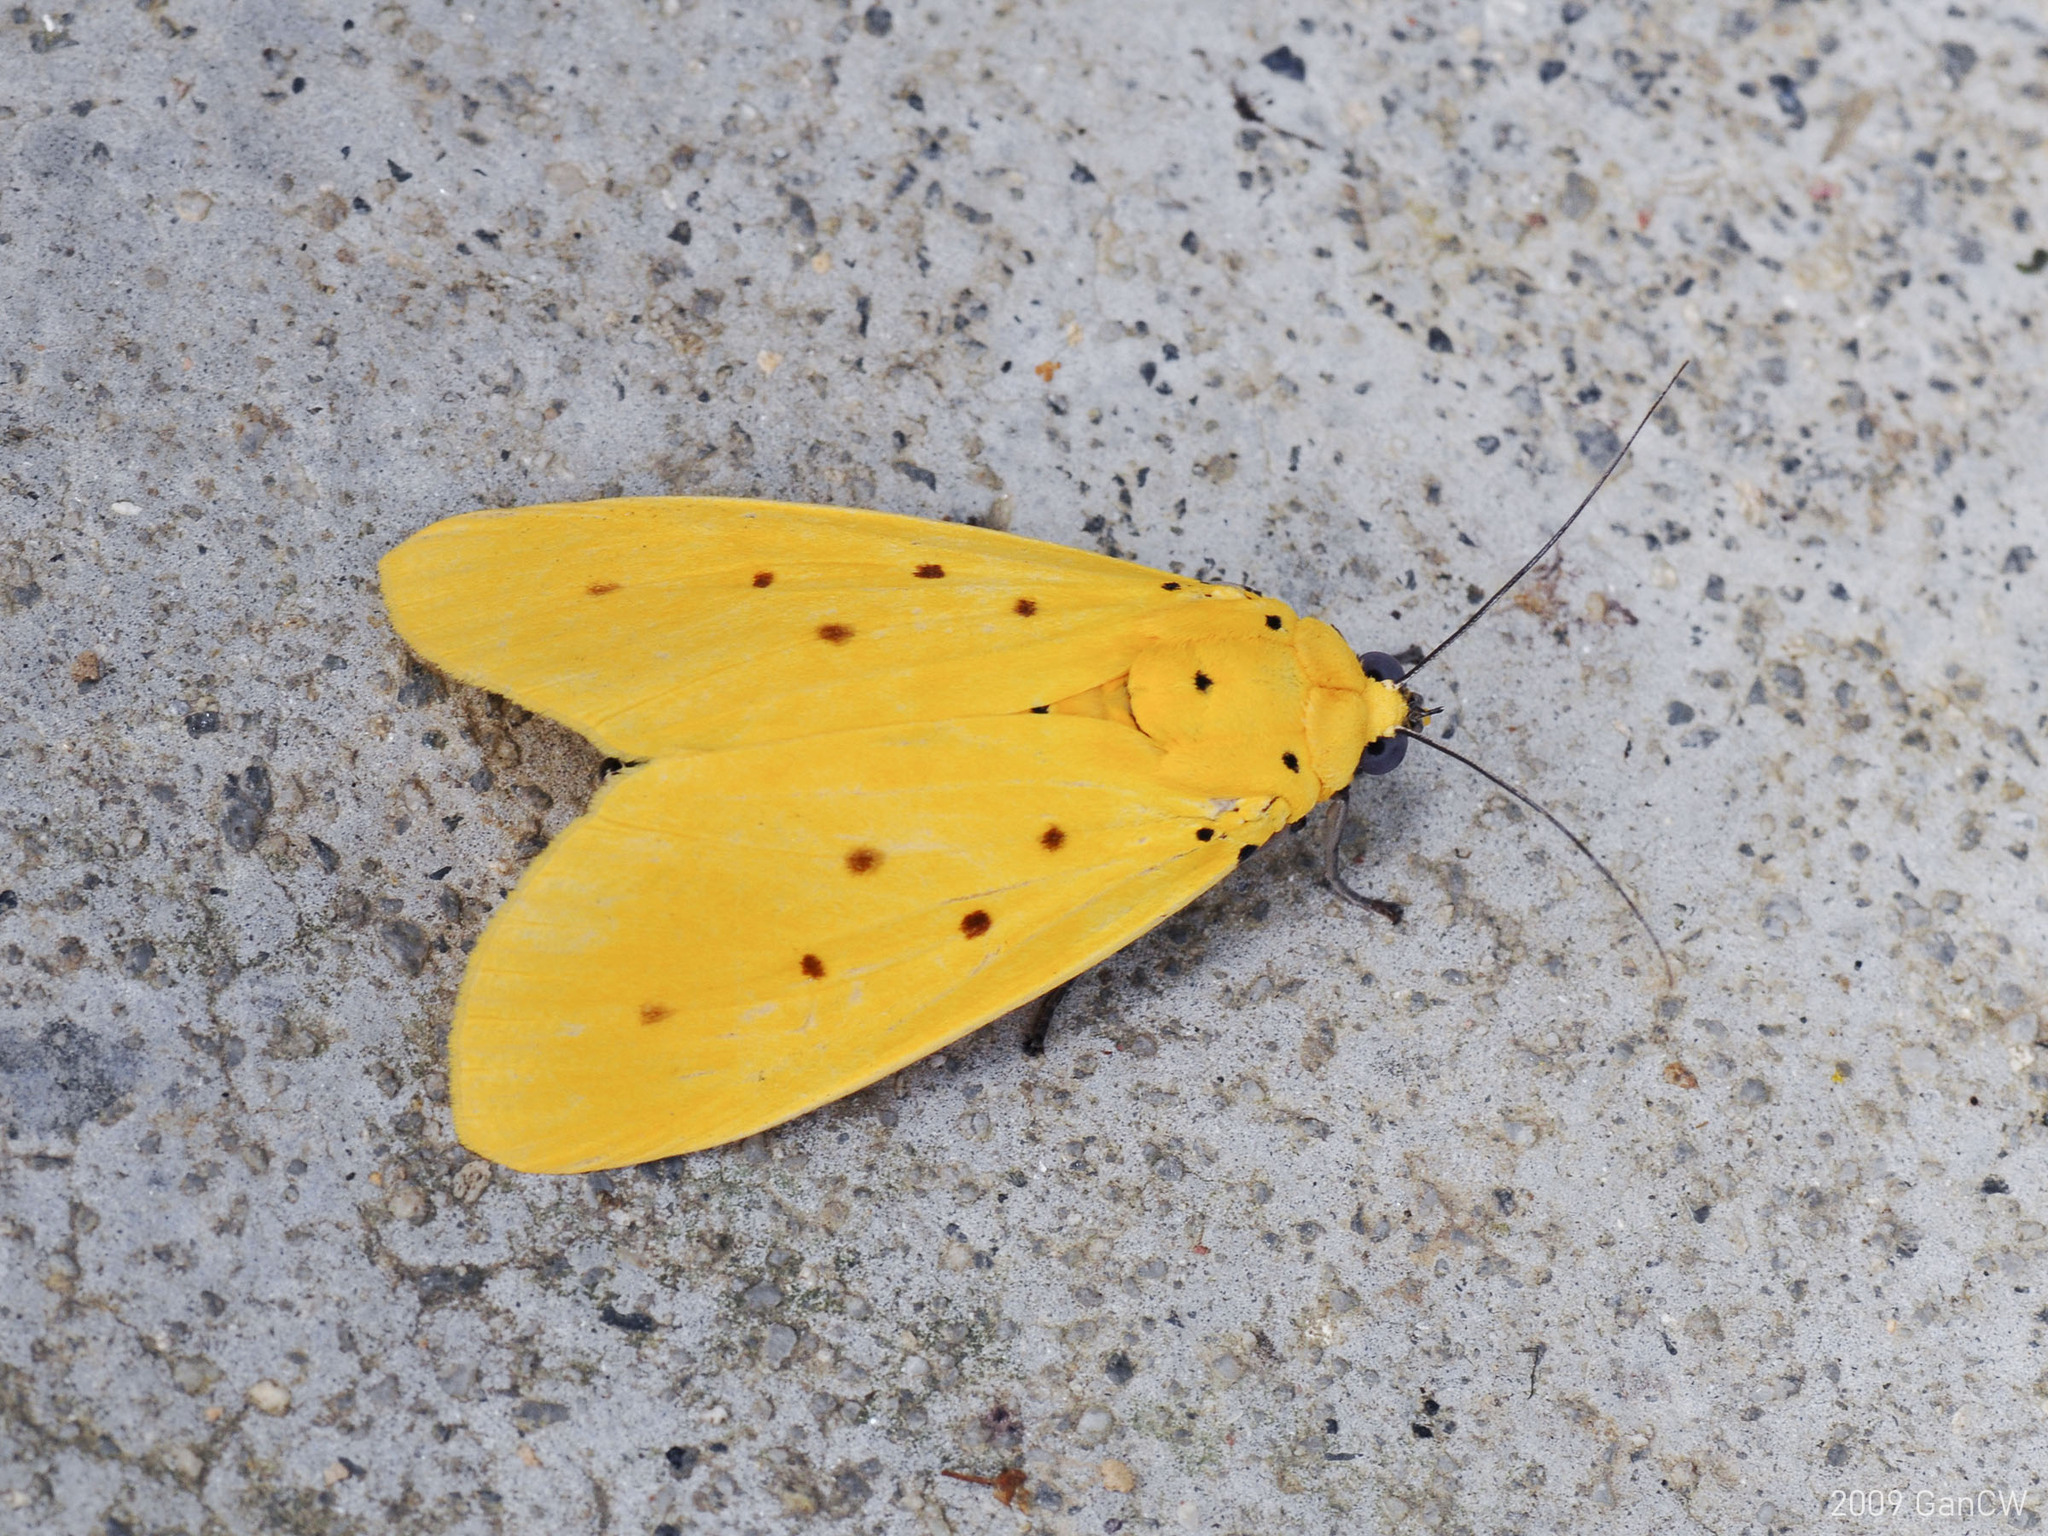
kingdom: Animalia
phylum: Arthropoda
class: Insecta
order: Lepidoptera
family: Noctuidae
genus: Agape
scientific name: Agape chloropyga
